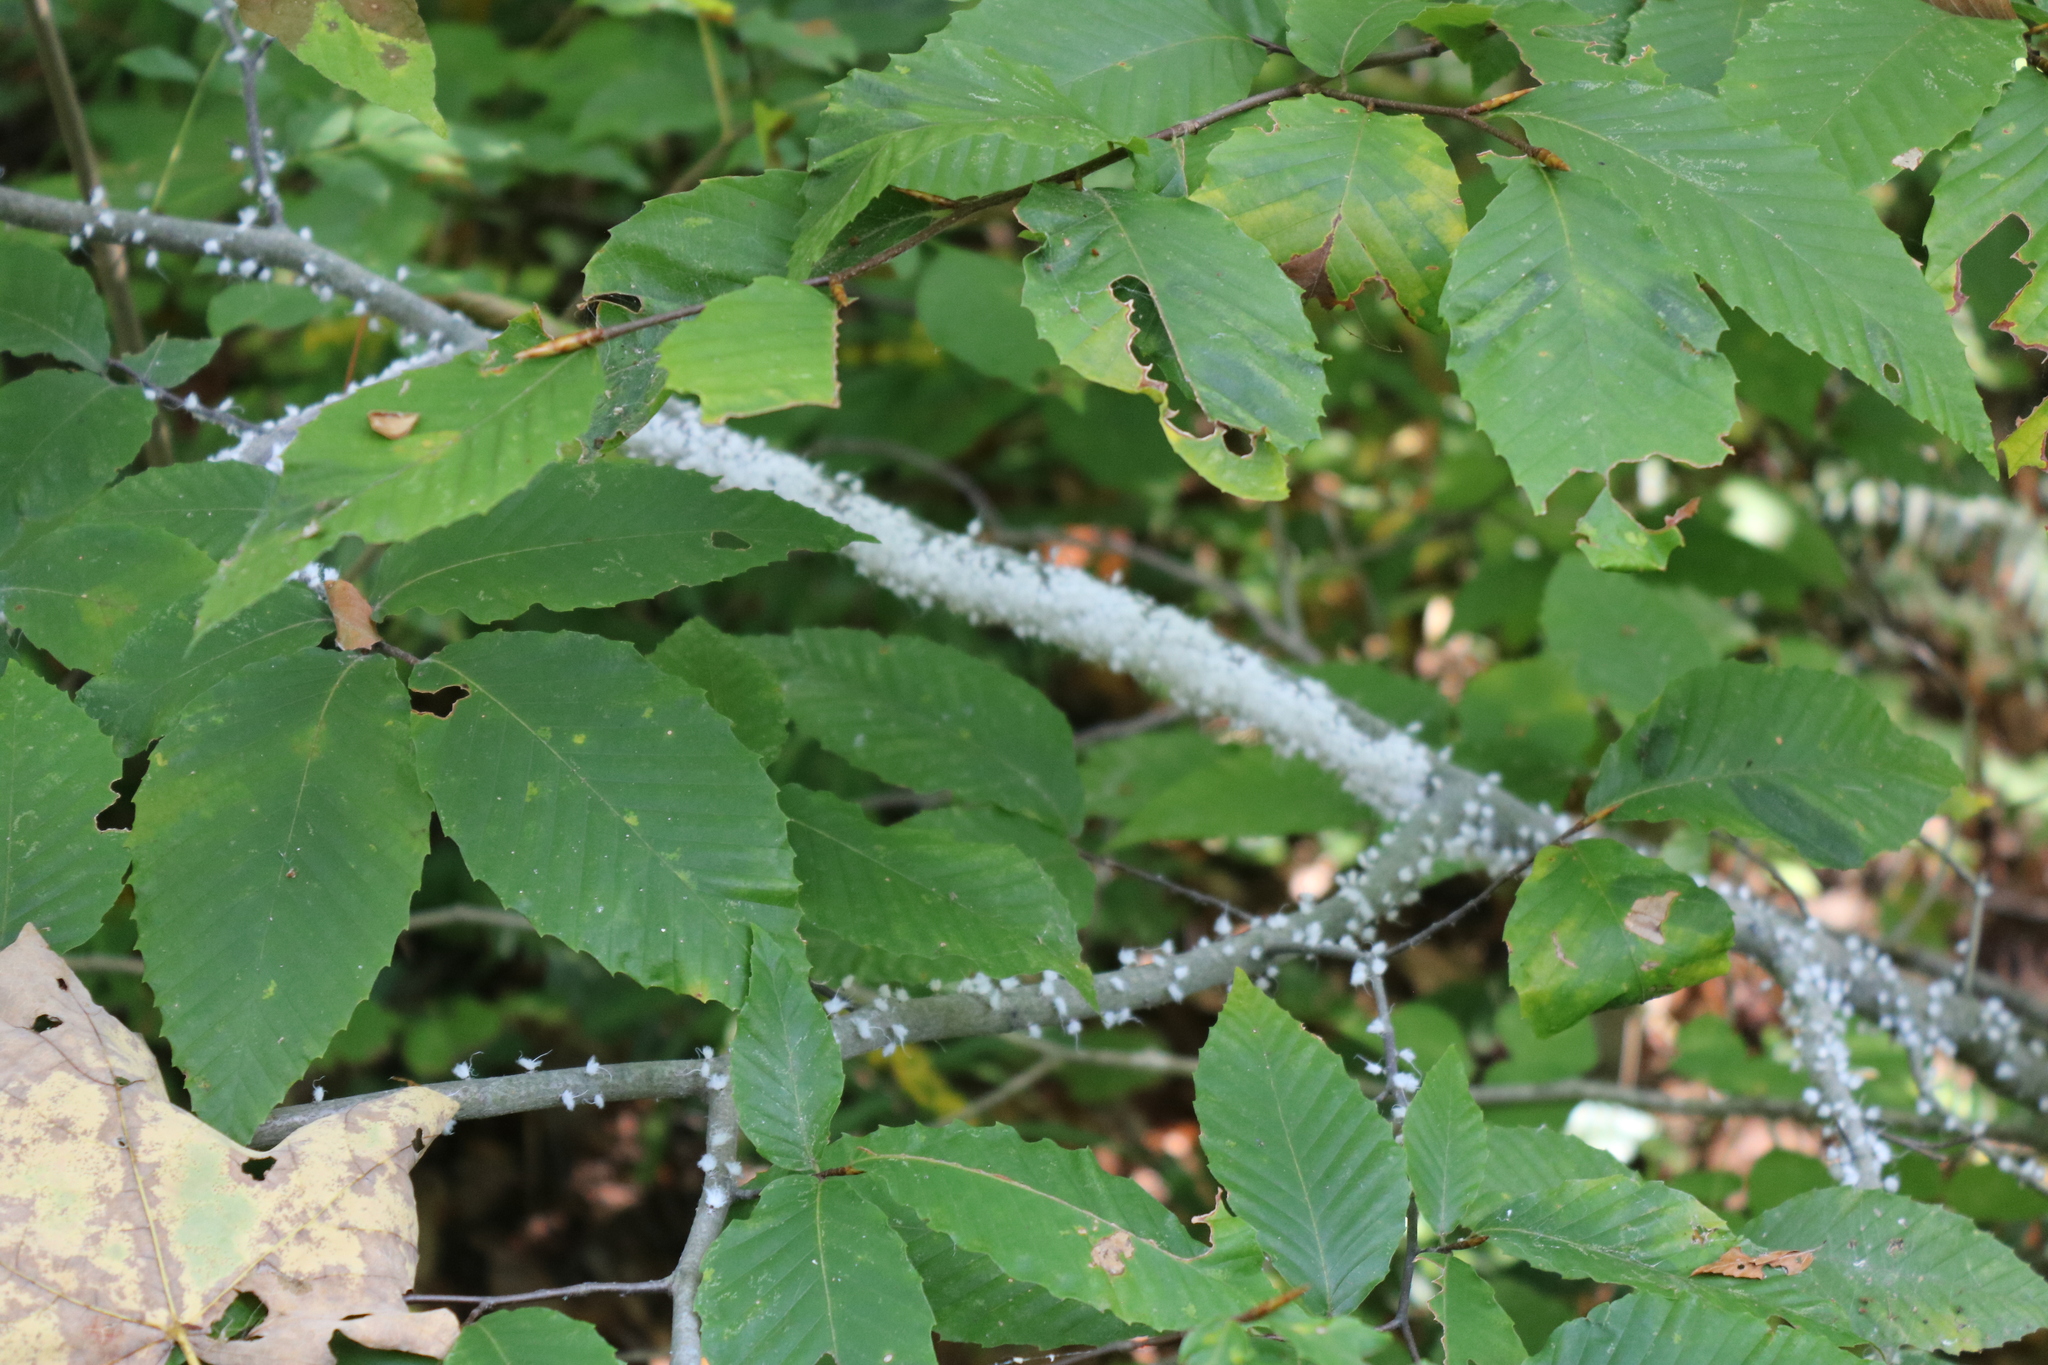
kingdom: Animalia
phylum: Arthropoda
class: Insecta
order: Hemiptera
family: Aphididae
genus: Grylloprociphilus
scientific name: Grylloprociphilus imbricator
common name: Beech blight aphid
